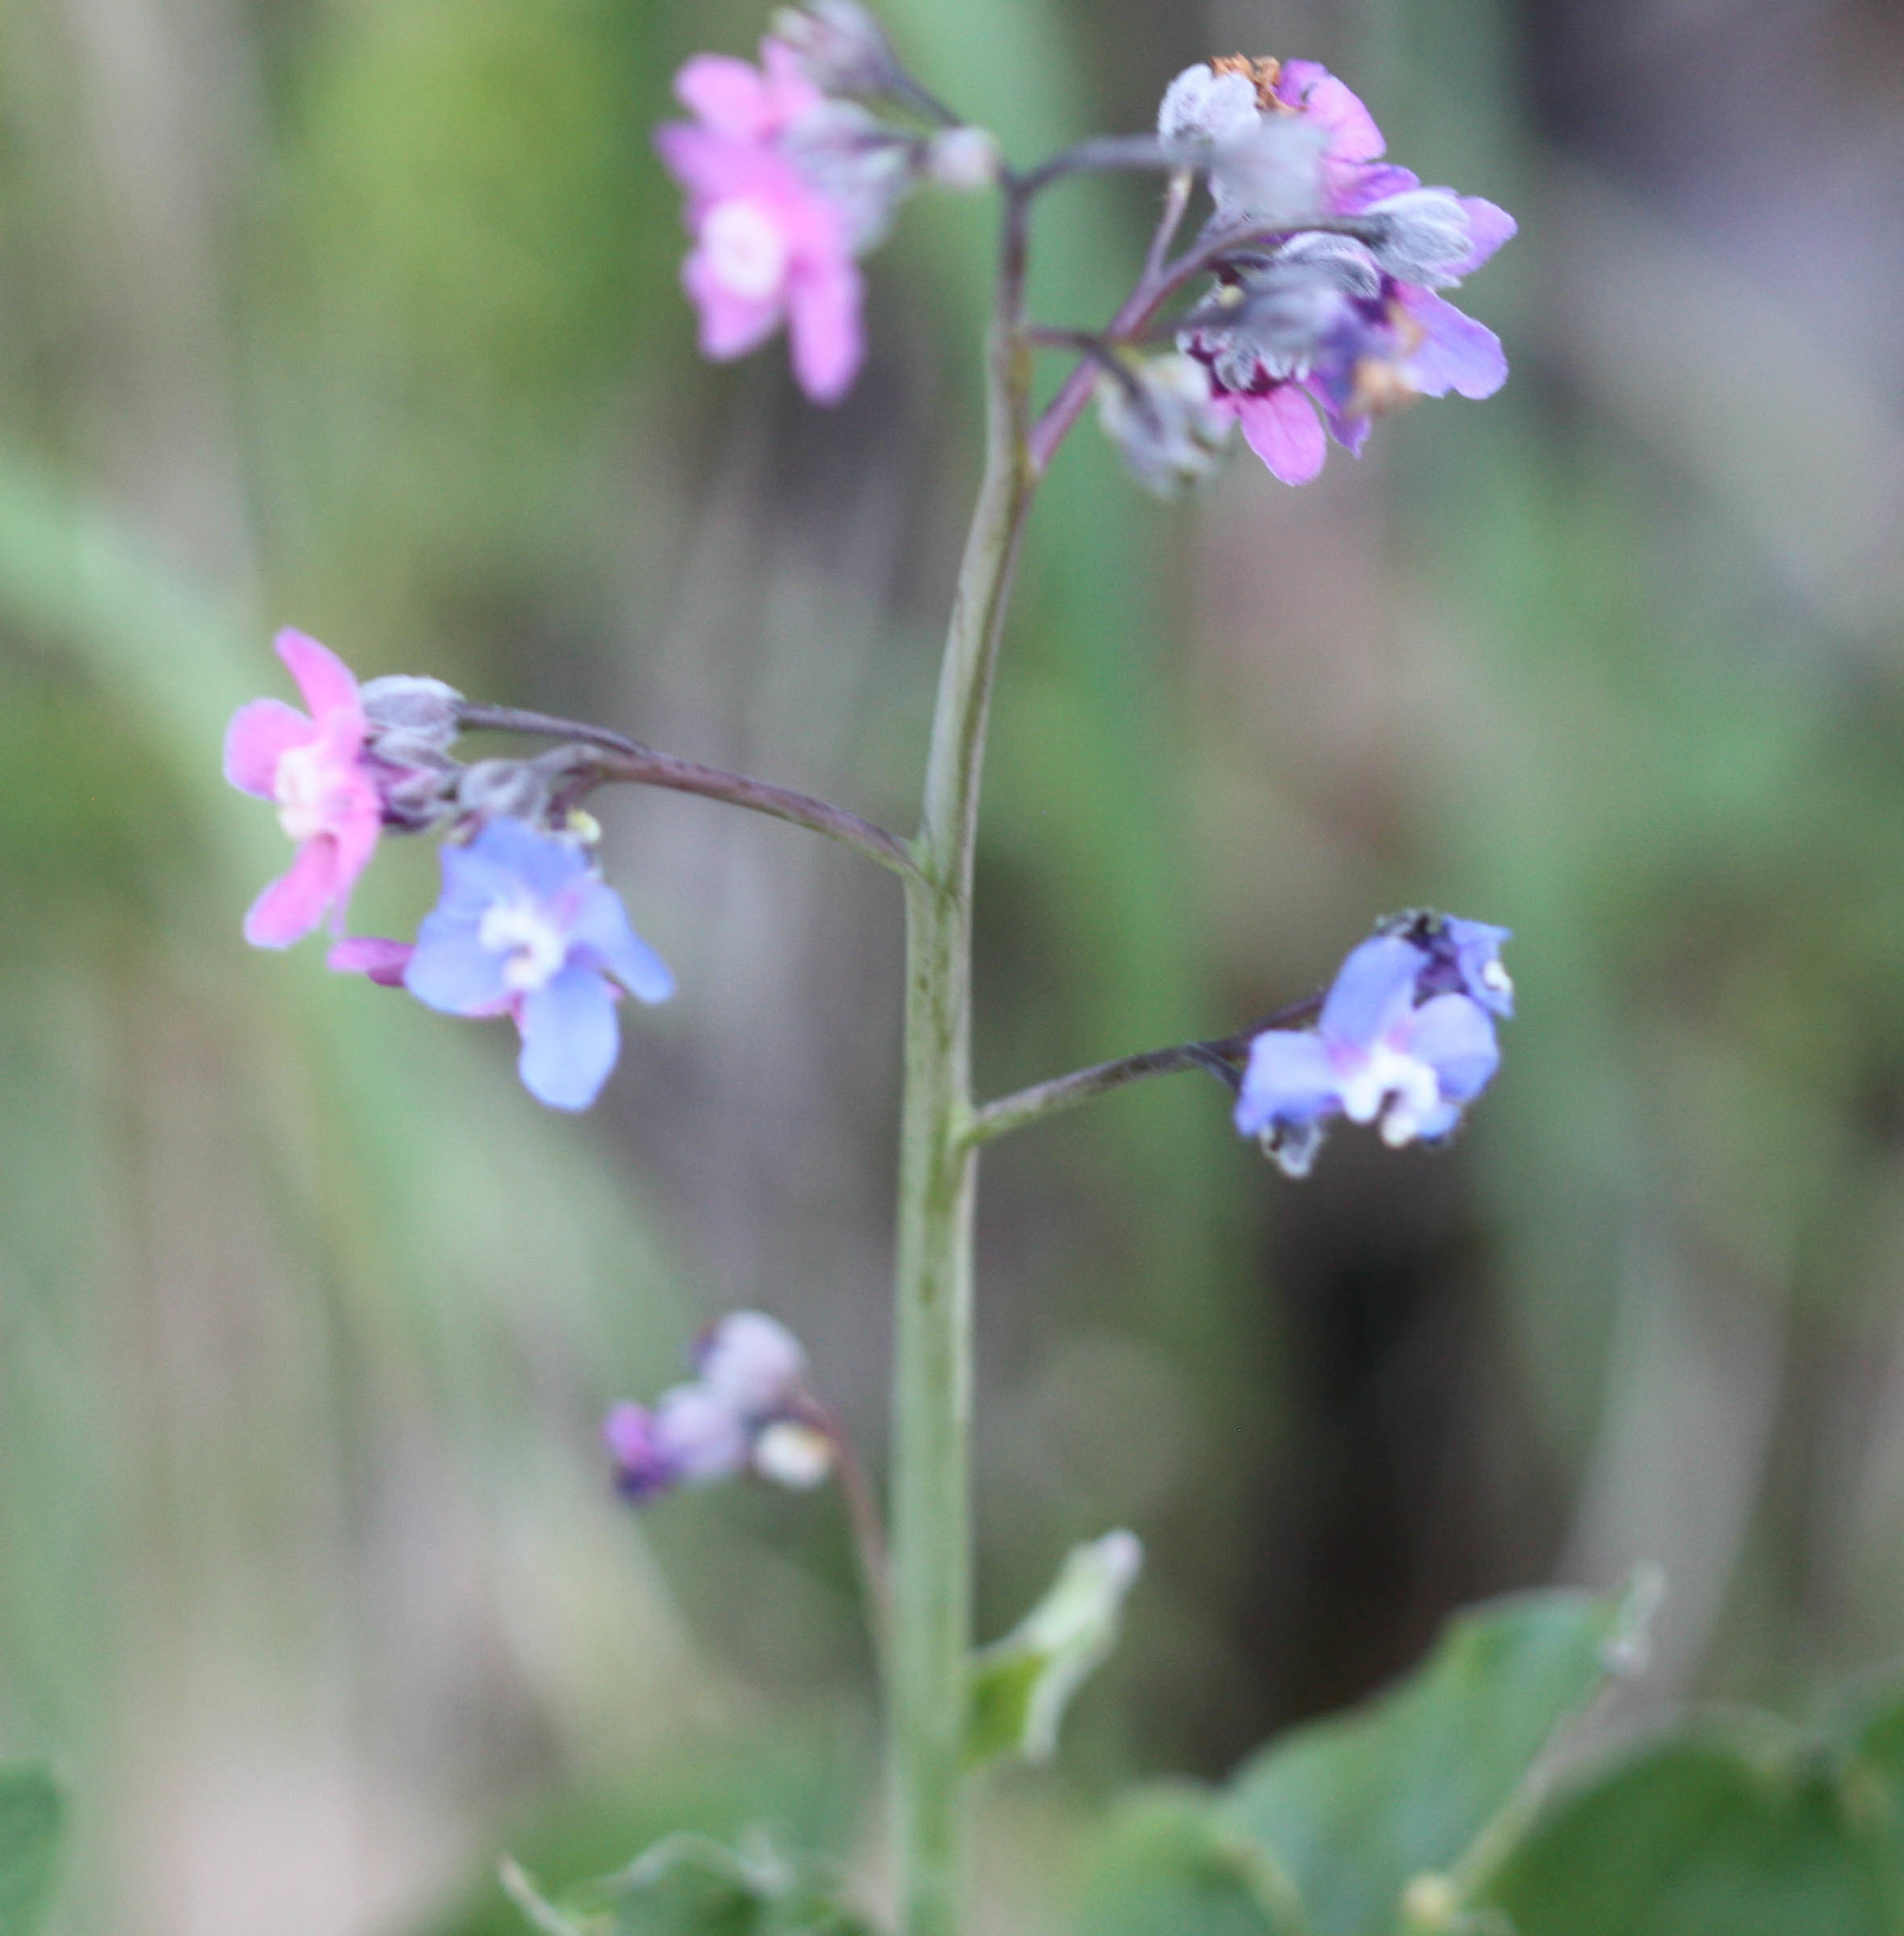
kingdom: Plantae
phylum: Tracheophyta
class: Magnoliopsida
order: Boraginales
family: Boraginaceae
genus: Adelinia
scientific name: Adelinia grande
